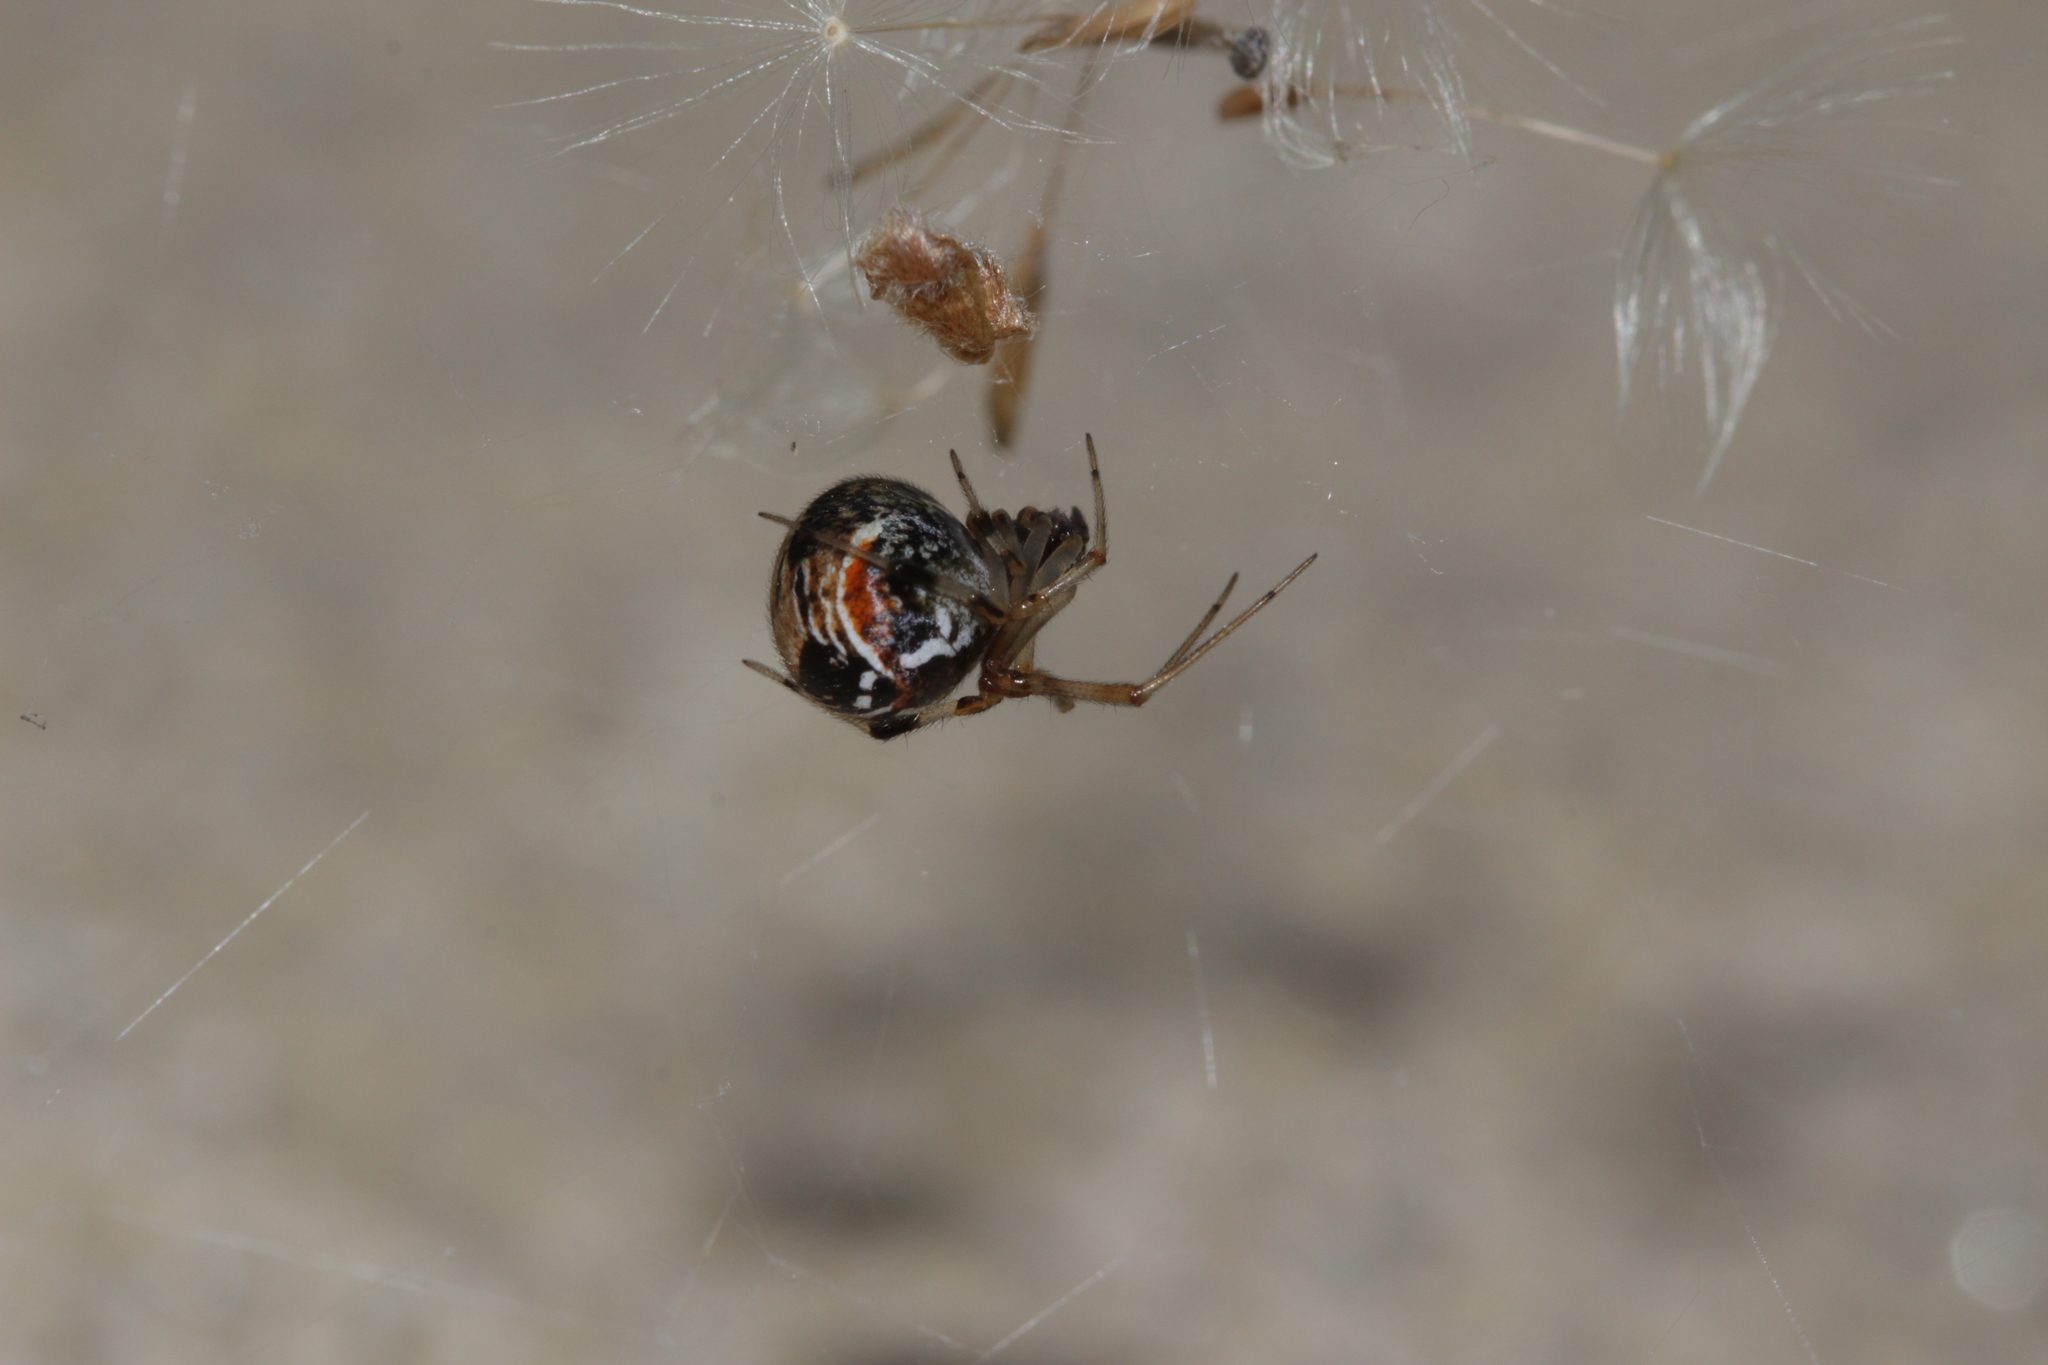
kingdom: Animalia
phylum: Arthropoda
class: Arachnida
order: Araneae
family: Theridiidae
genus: Parasteatoda
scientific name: Parasteatoda lunata
